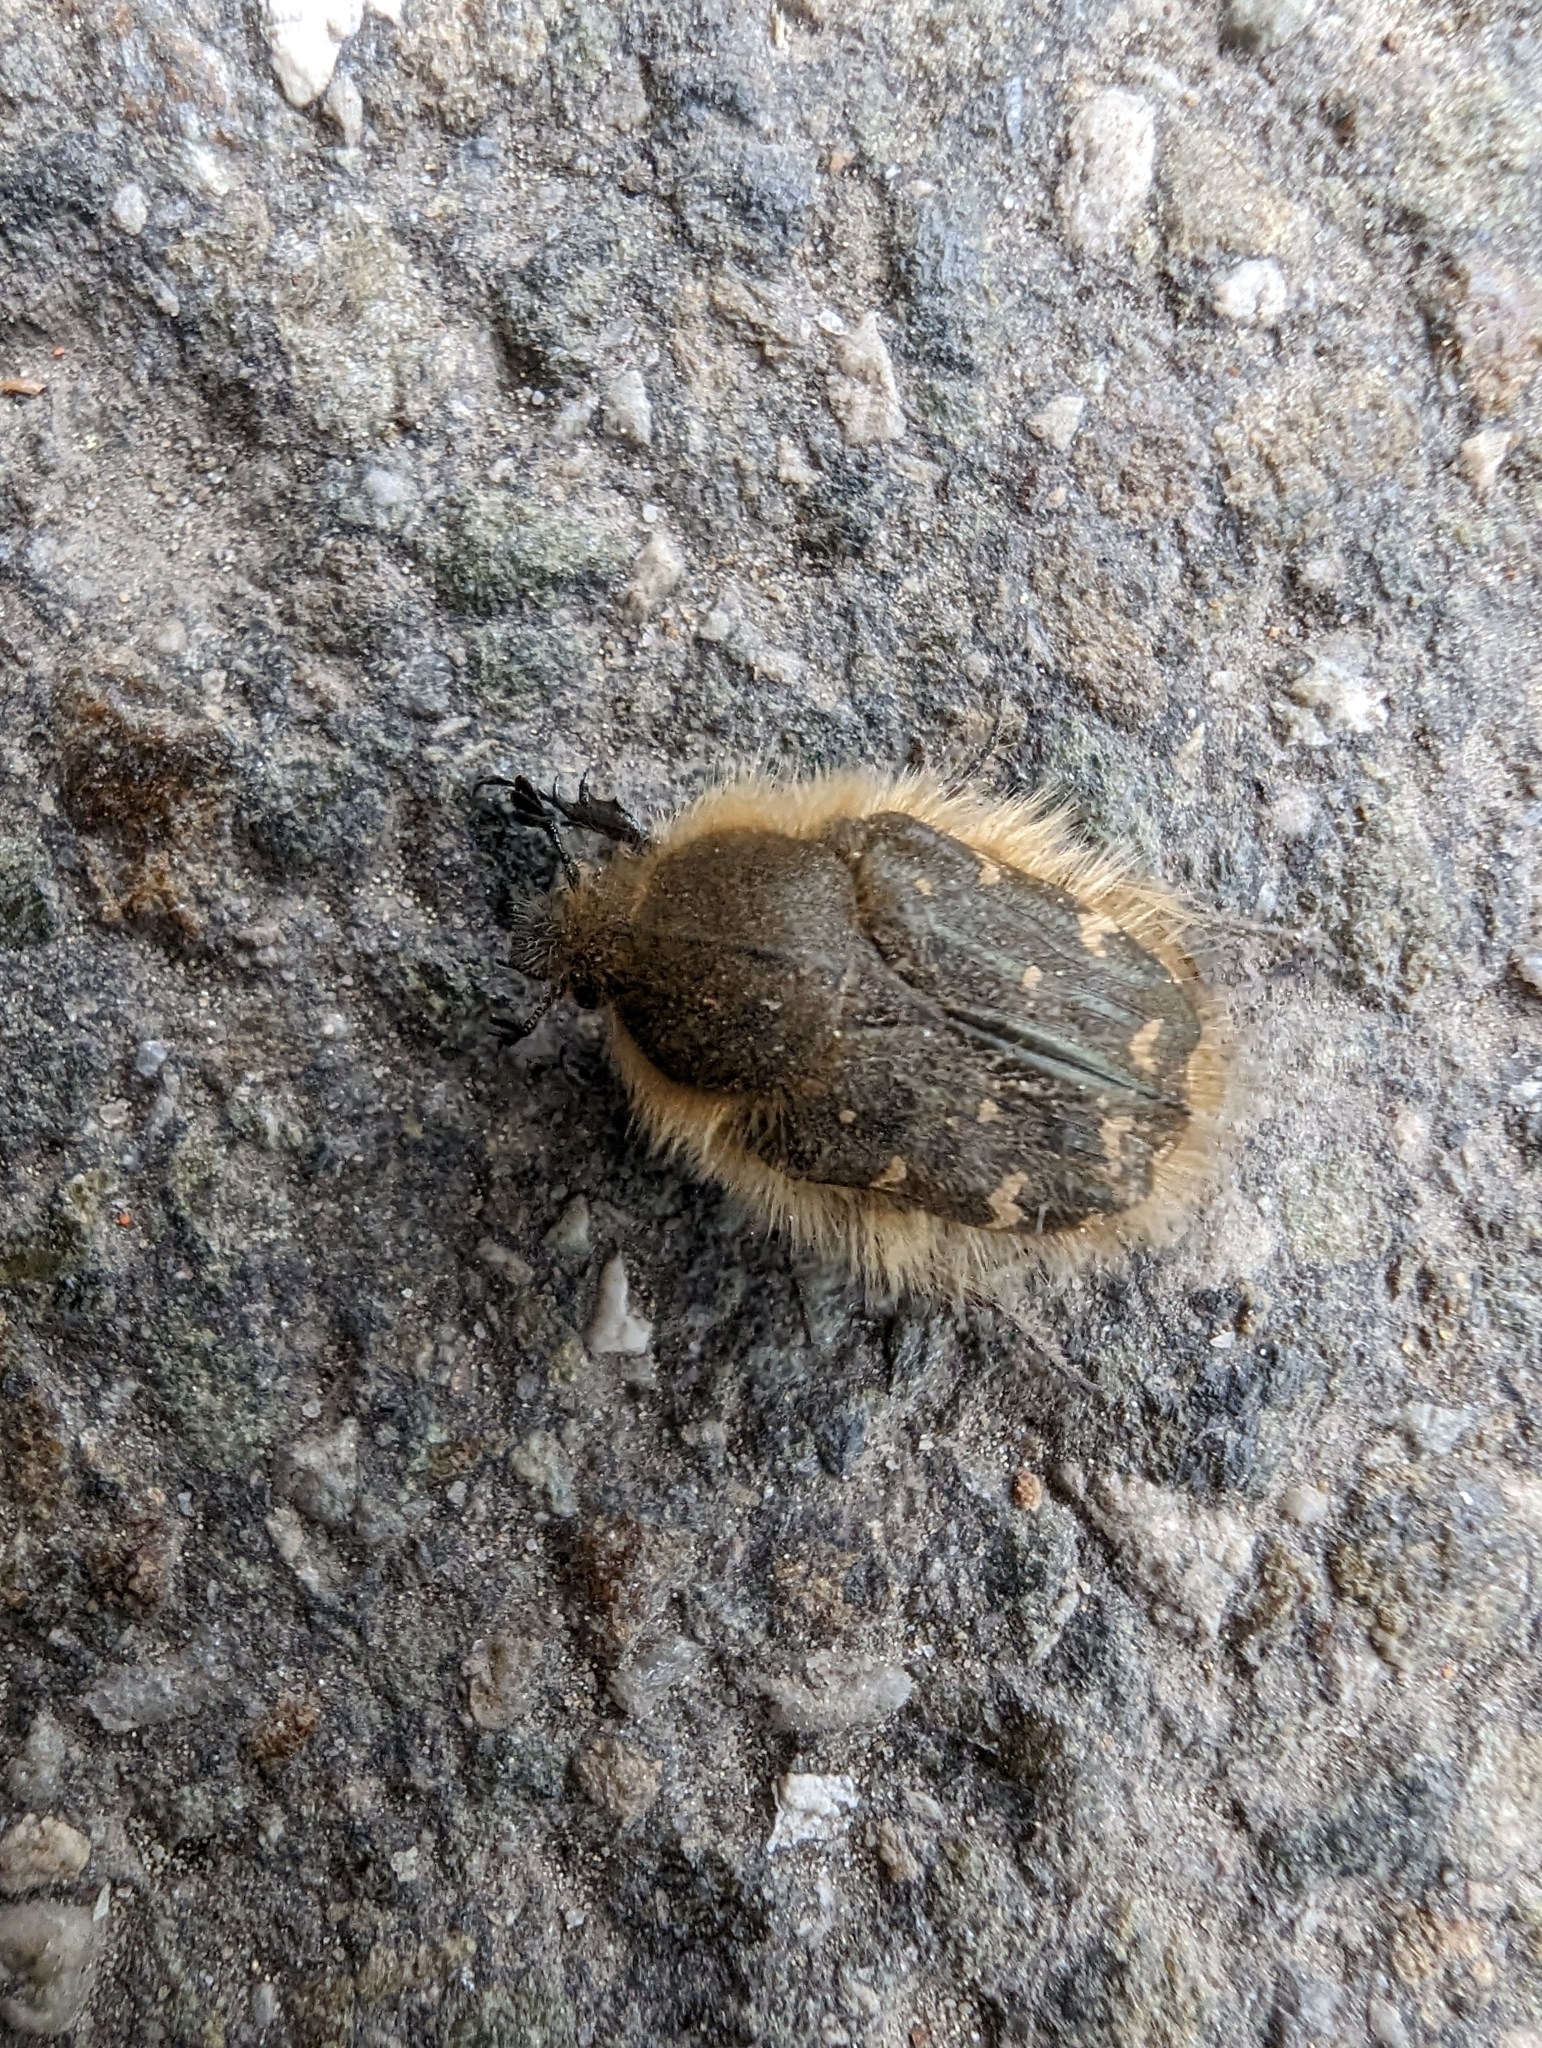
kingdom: Animalia
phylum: Arthropoda
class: Insecta
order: Coleoptera
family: Scarabaeidae
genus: Tropinota
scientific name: Tropinota hirta
